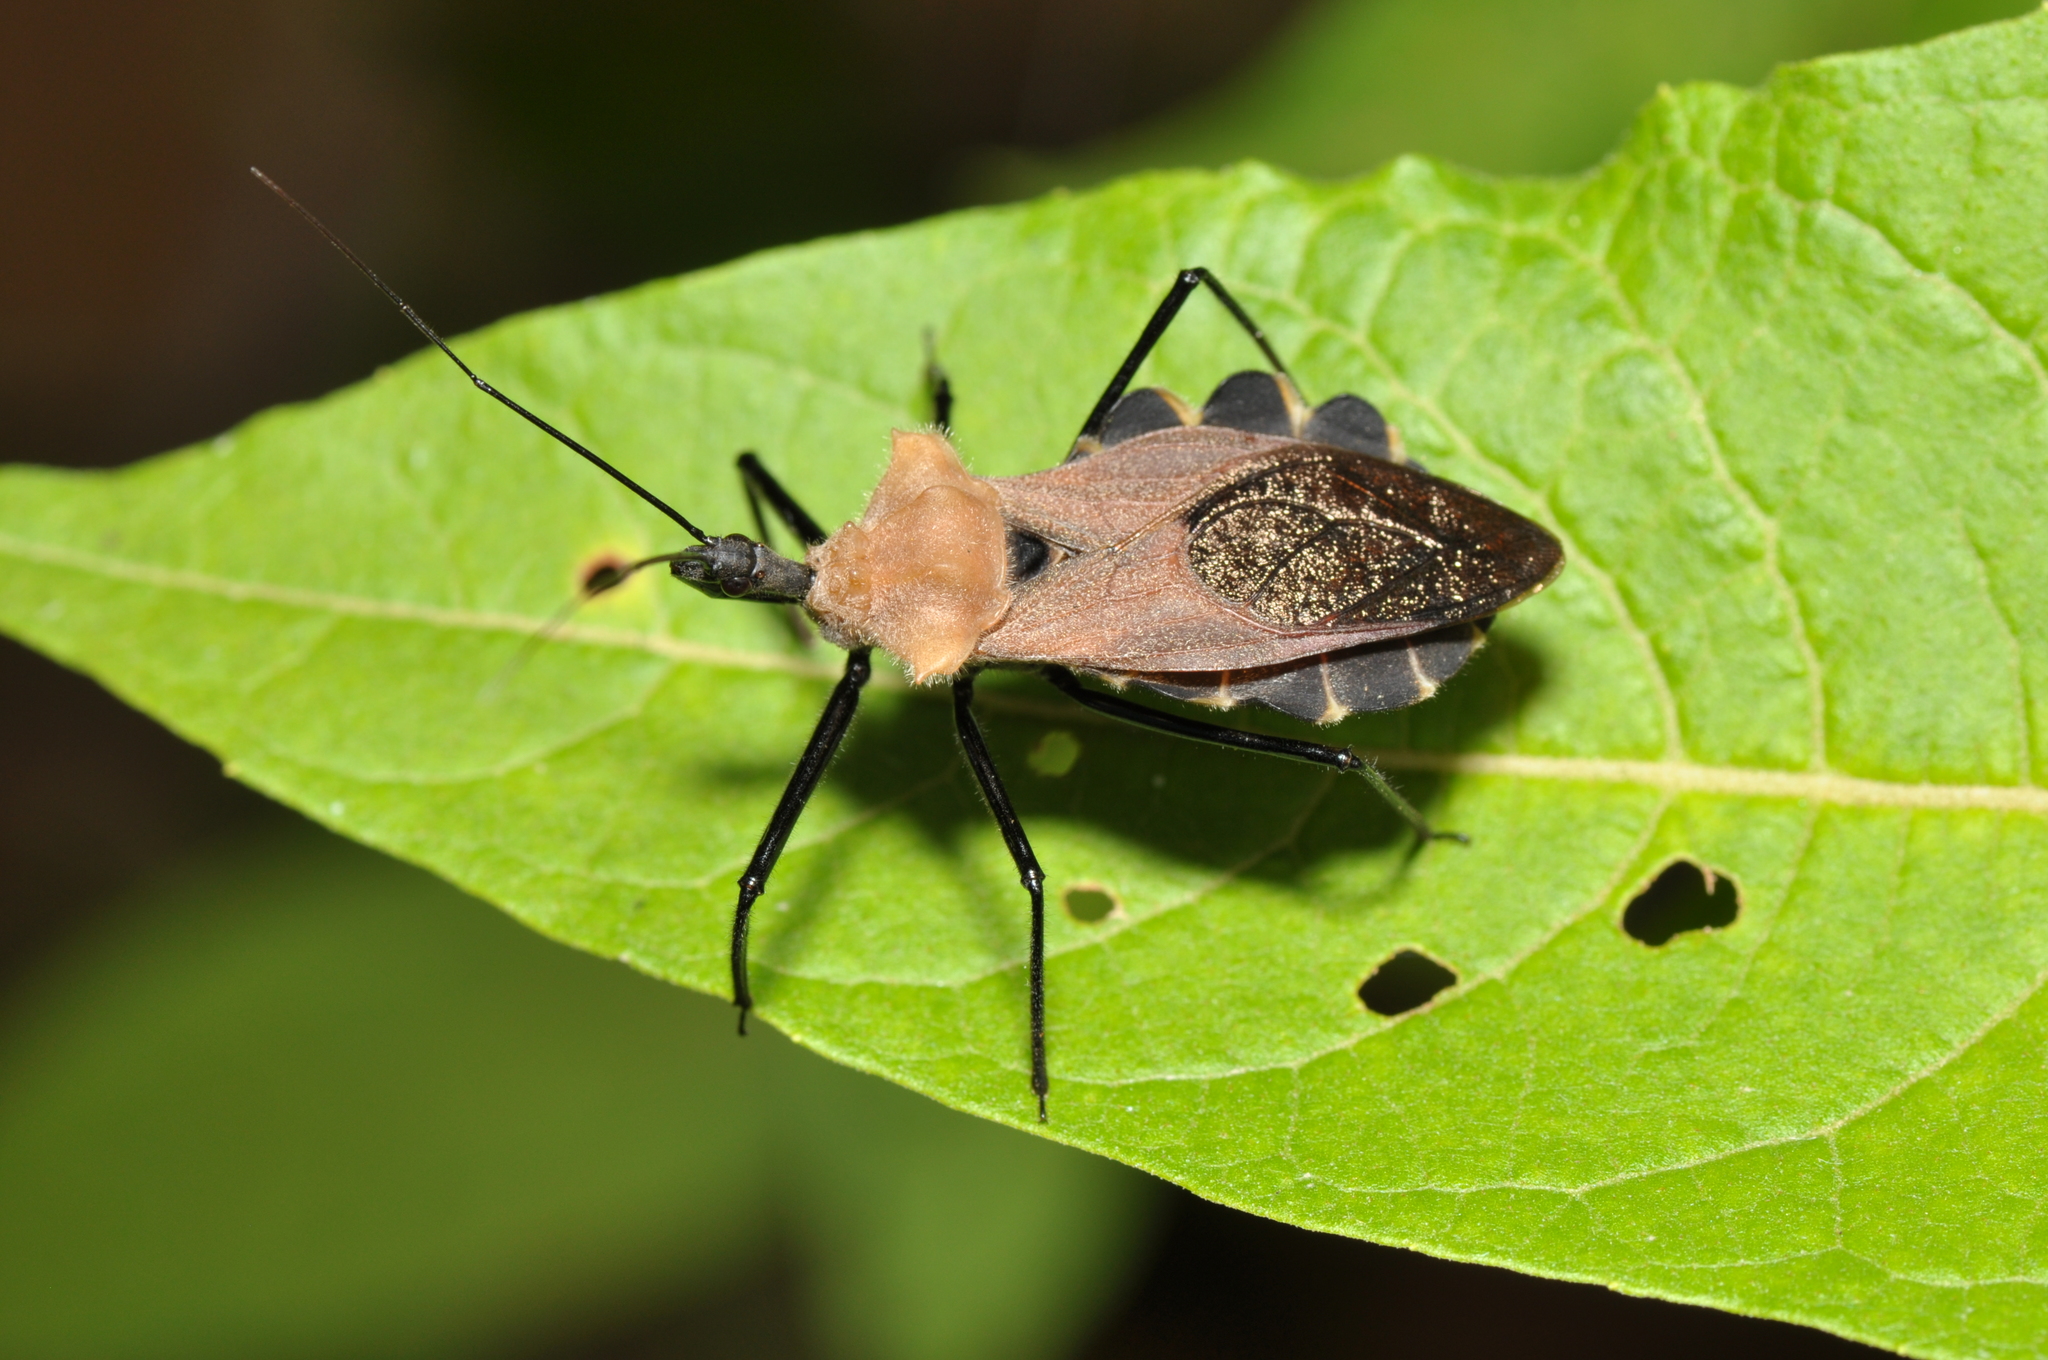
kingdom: Animalia
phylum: Arthropoda
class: Insecta
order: Hemiptera
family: Reduviidae
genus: Montina
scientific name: Montina lobata
